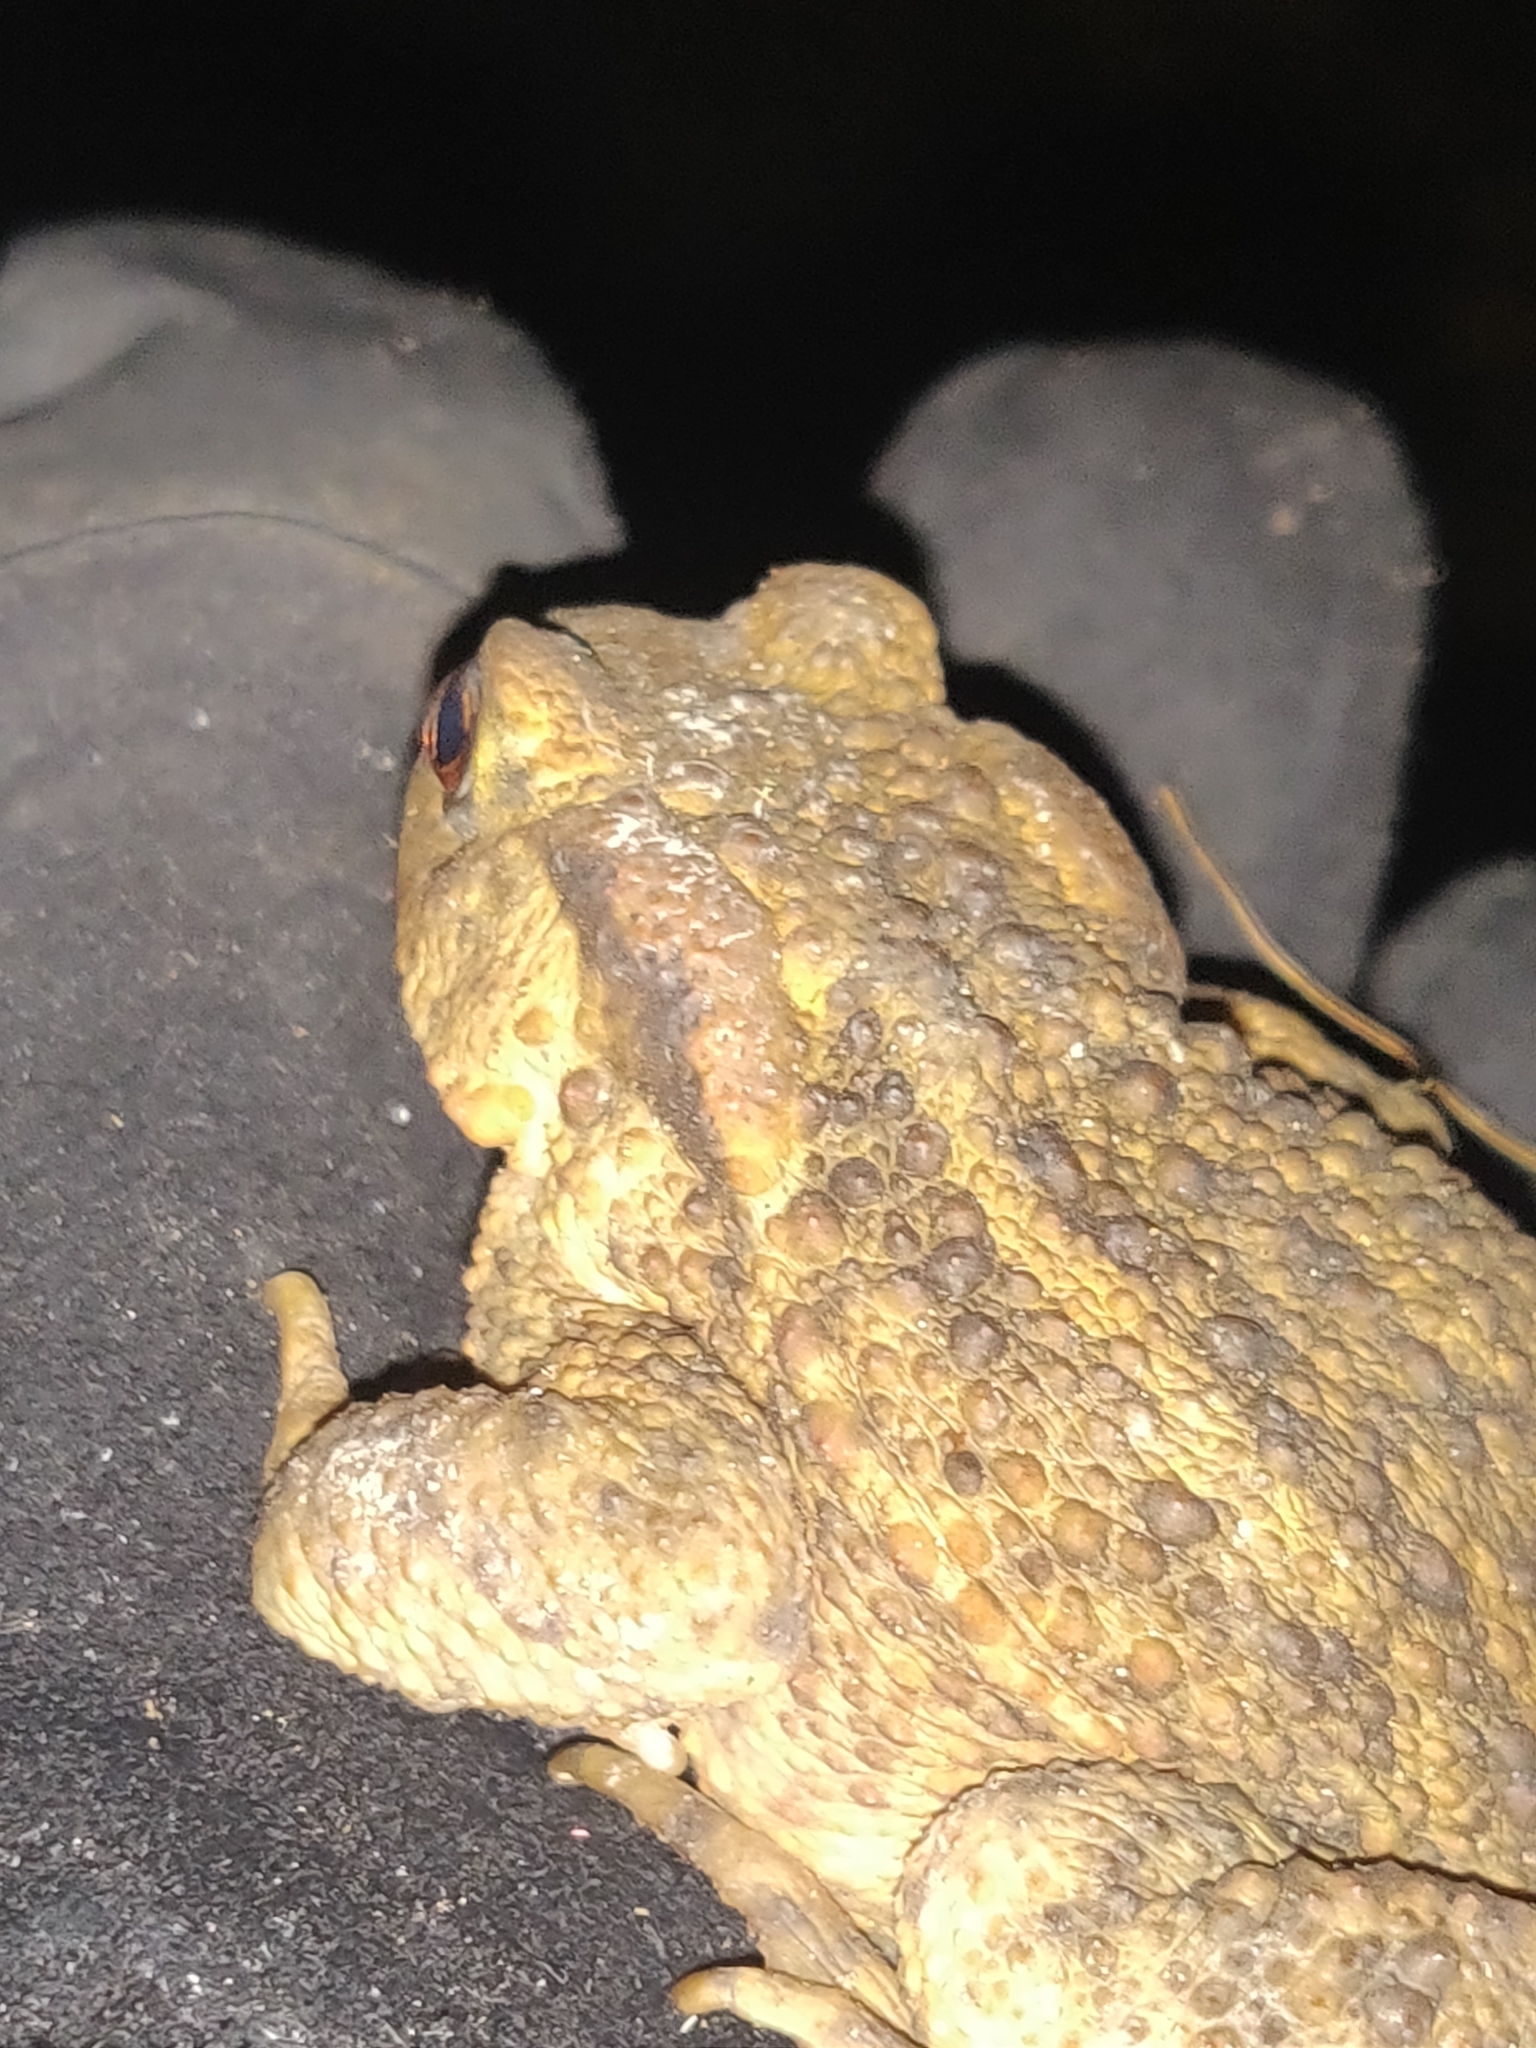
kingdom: Animalia
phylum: Chordata
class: Amphibia
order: Anura
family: Bufonidae
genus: Bufo
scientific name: Bufo bufo
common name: Common toad
